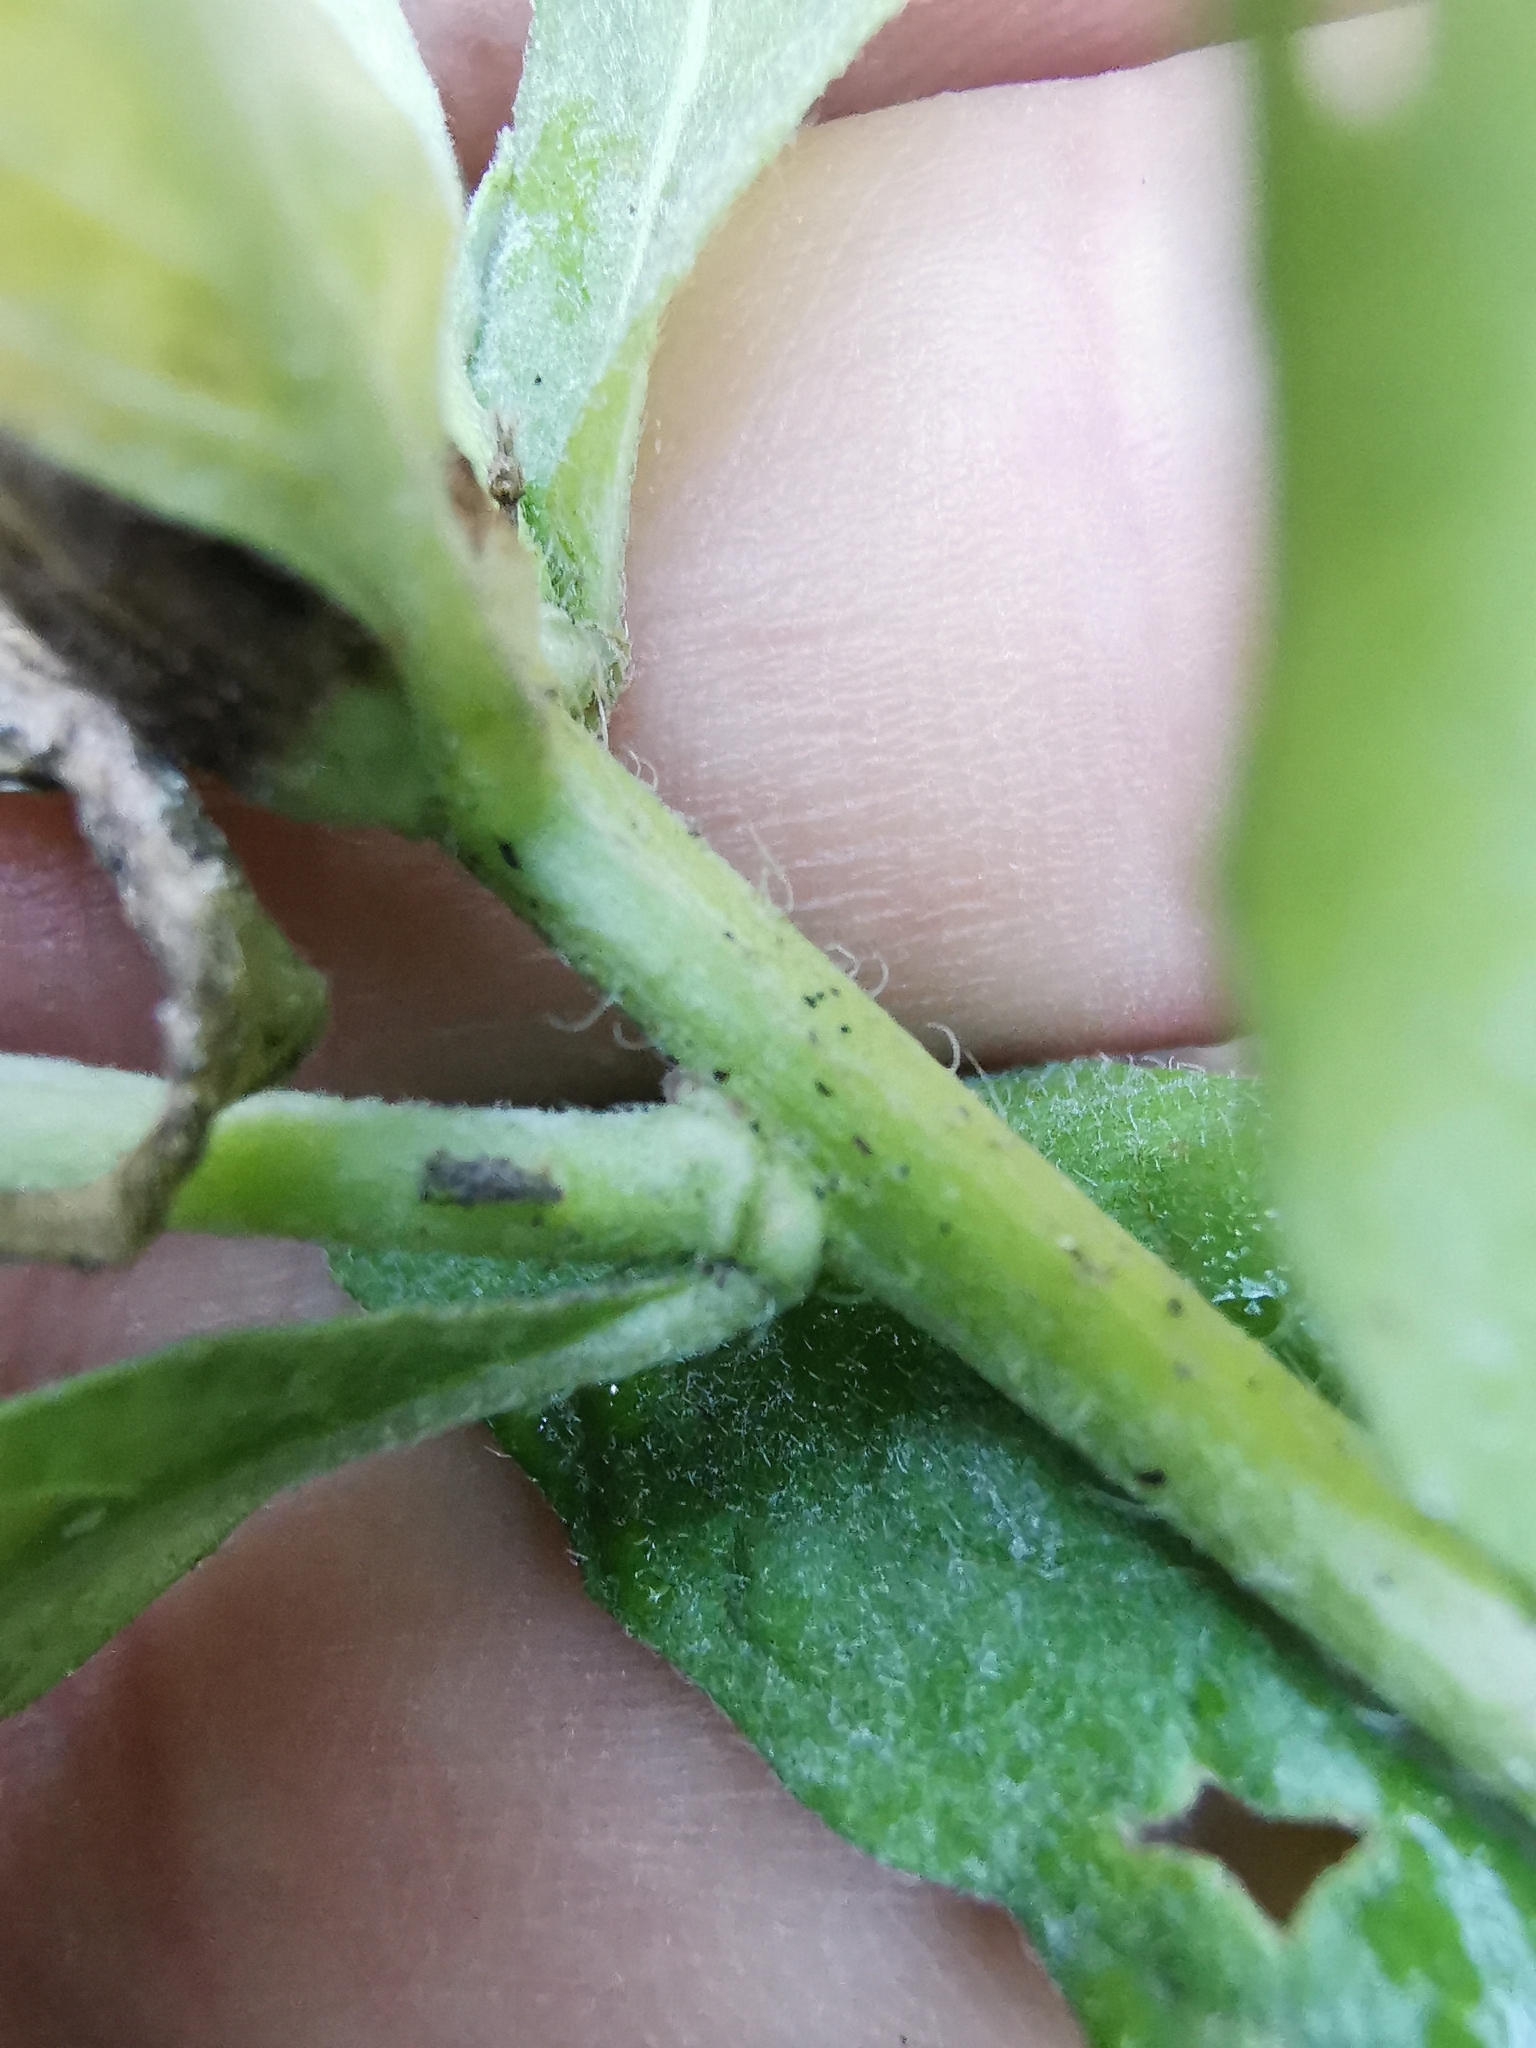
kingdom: Plantae
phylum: Tracheophyta
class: Magnoliopsida
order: Myrtales
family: Onagraceae
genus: Oenothera
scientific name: Oenothera biennis
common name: Common evening-primrose
